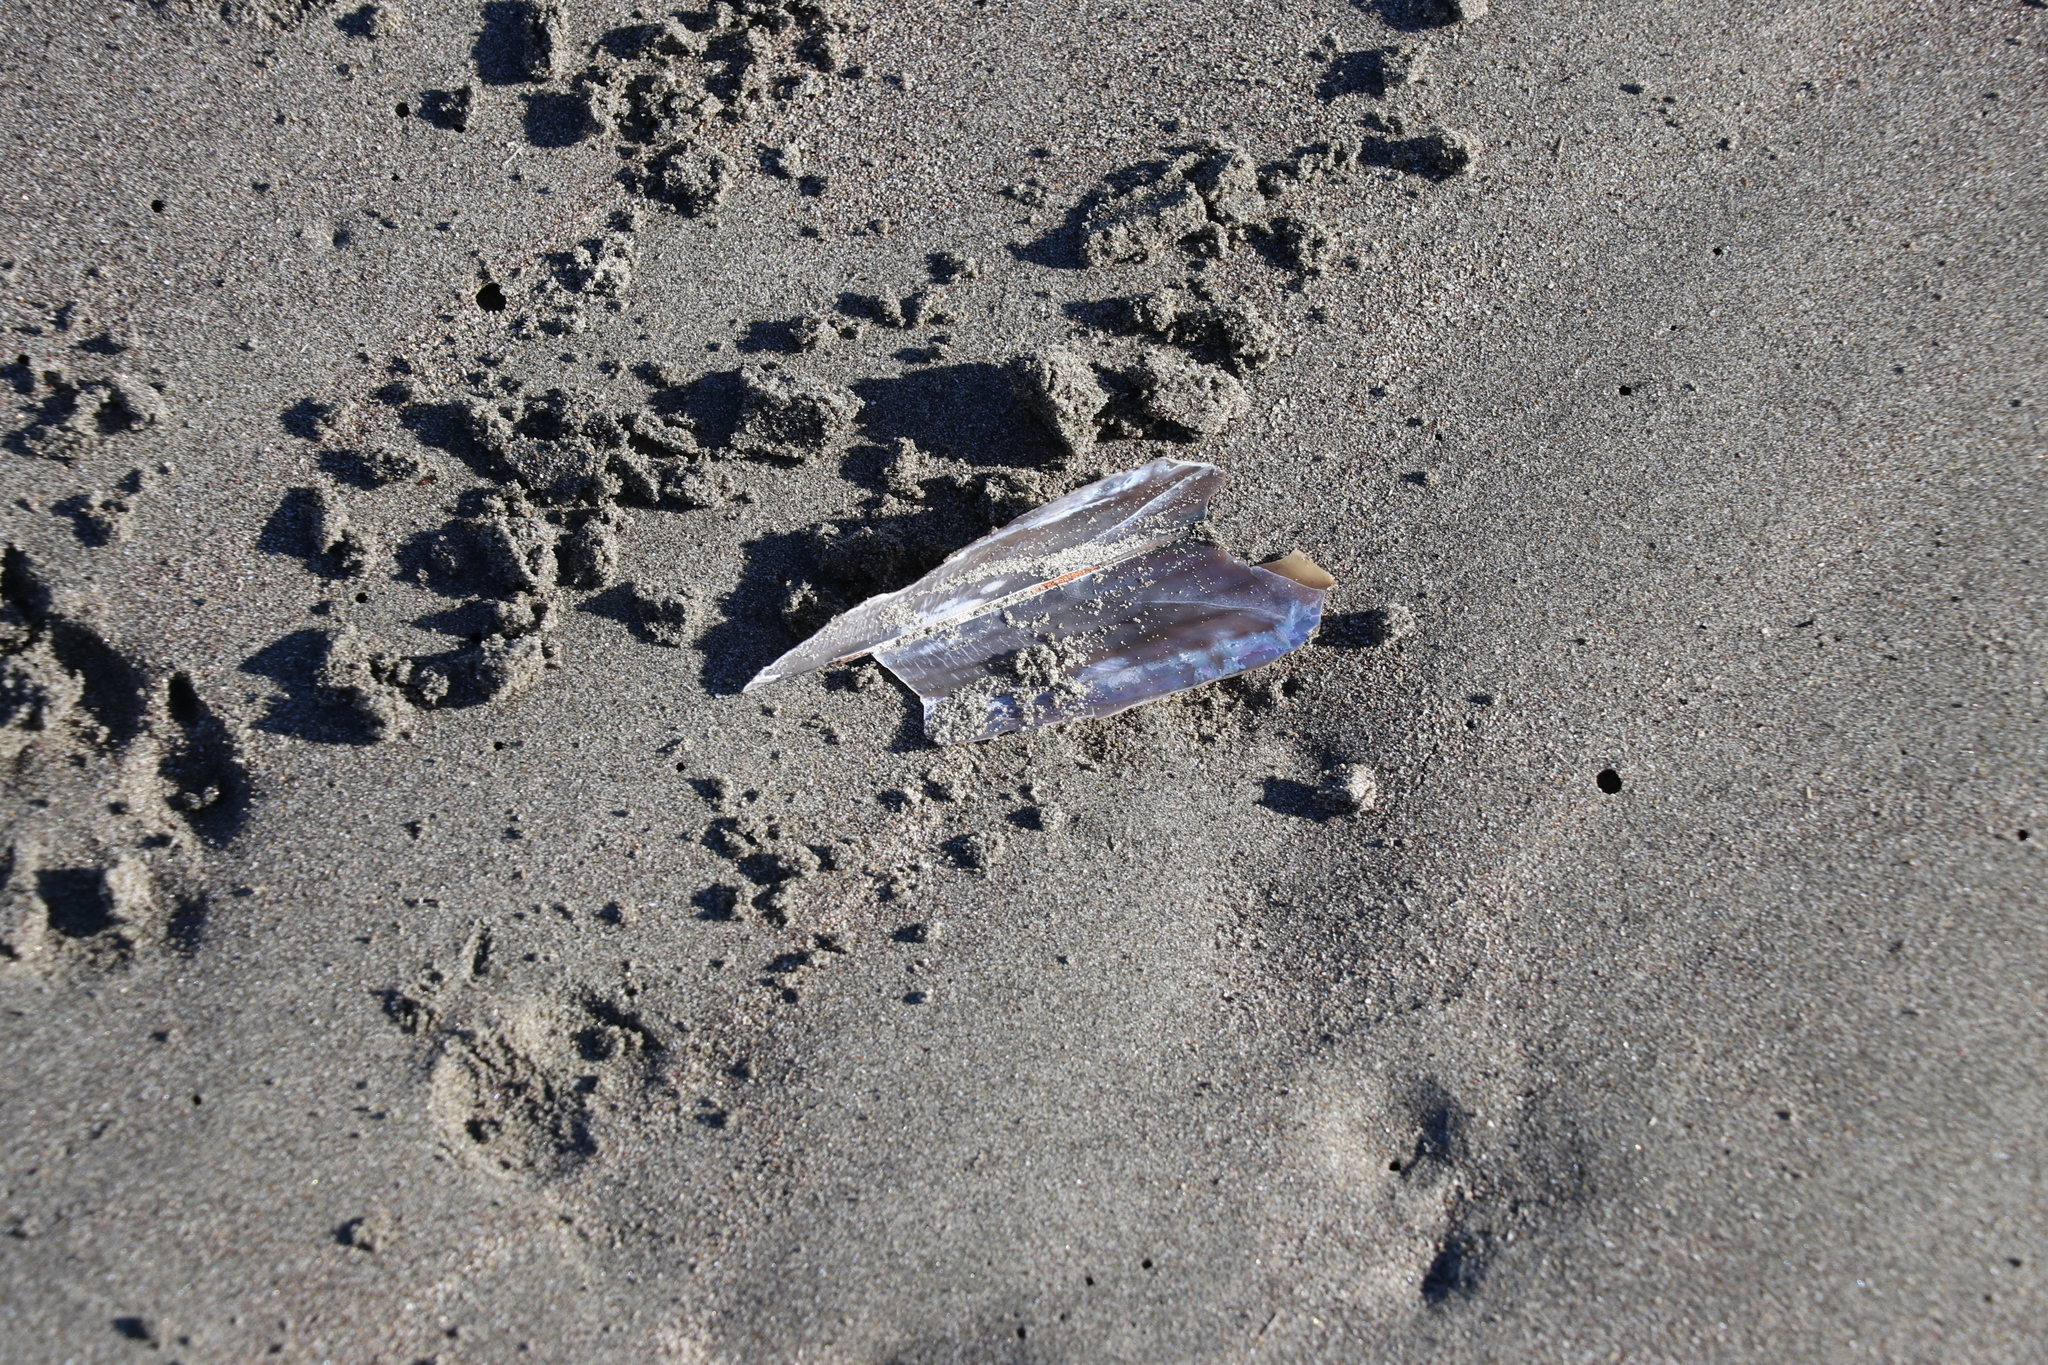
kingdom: Animalia
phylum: Mollusca
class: Bivalvia
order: Ostreida
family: Pinnidae
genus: Atrina
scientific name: Atrina zelandica
